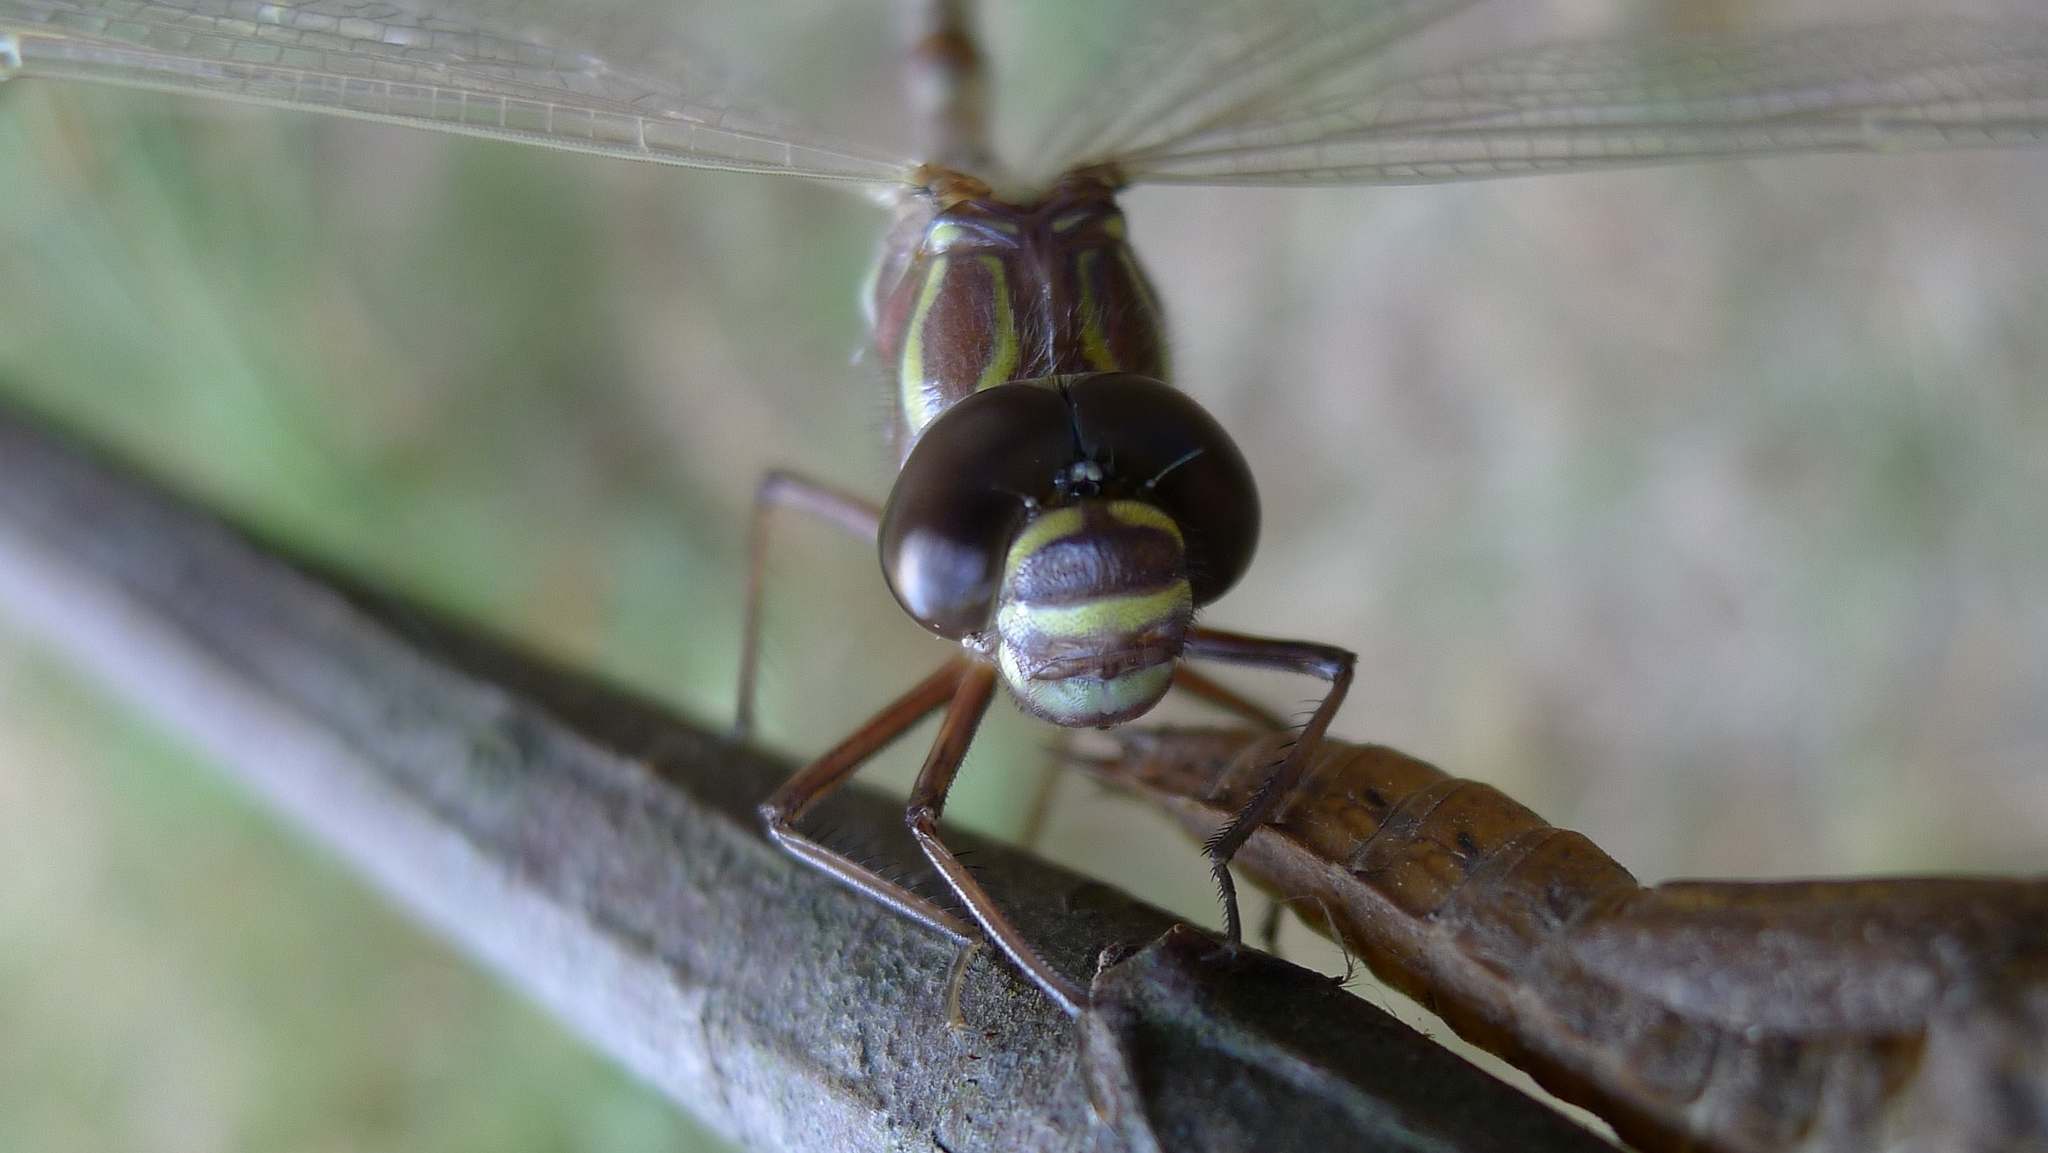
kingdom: Animalia
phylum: Arthropoda
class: Insecta
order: Odonata
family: Aeshnidae
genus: Austroaeschna
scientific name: Austroaeschna unicornis
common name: Unicorn darner
